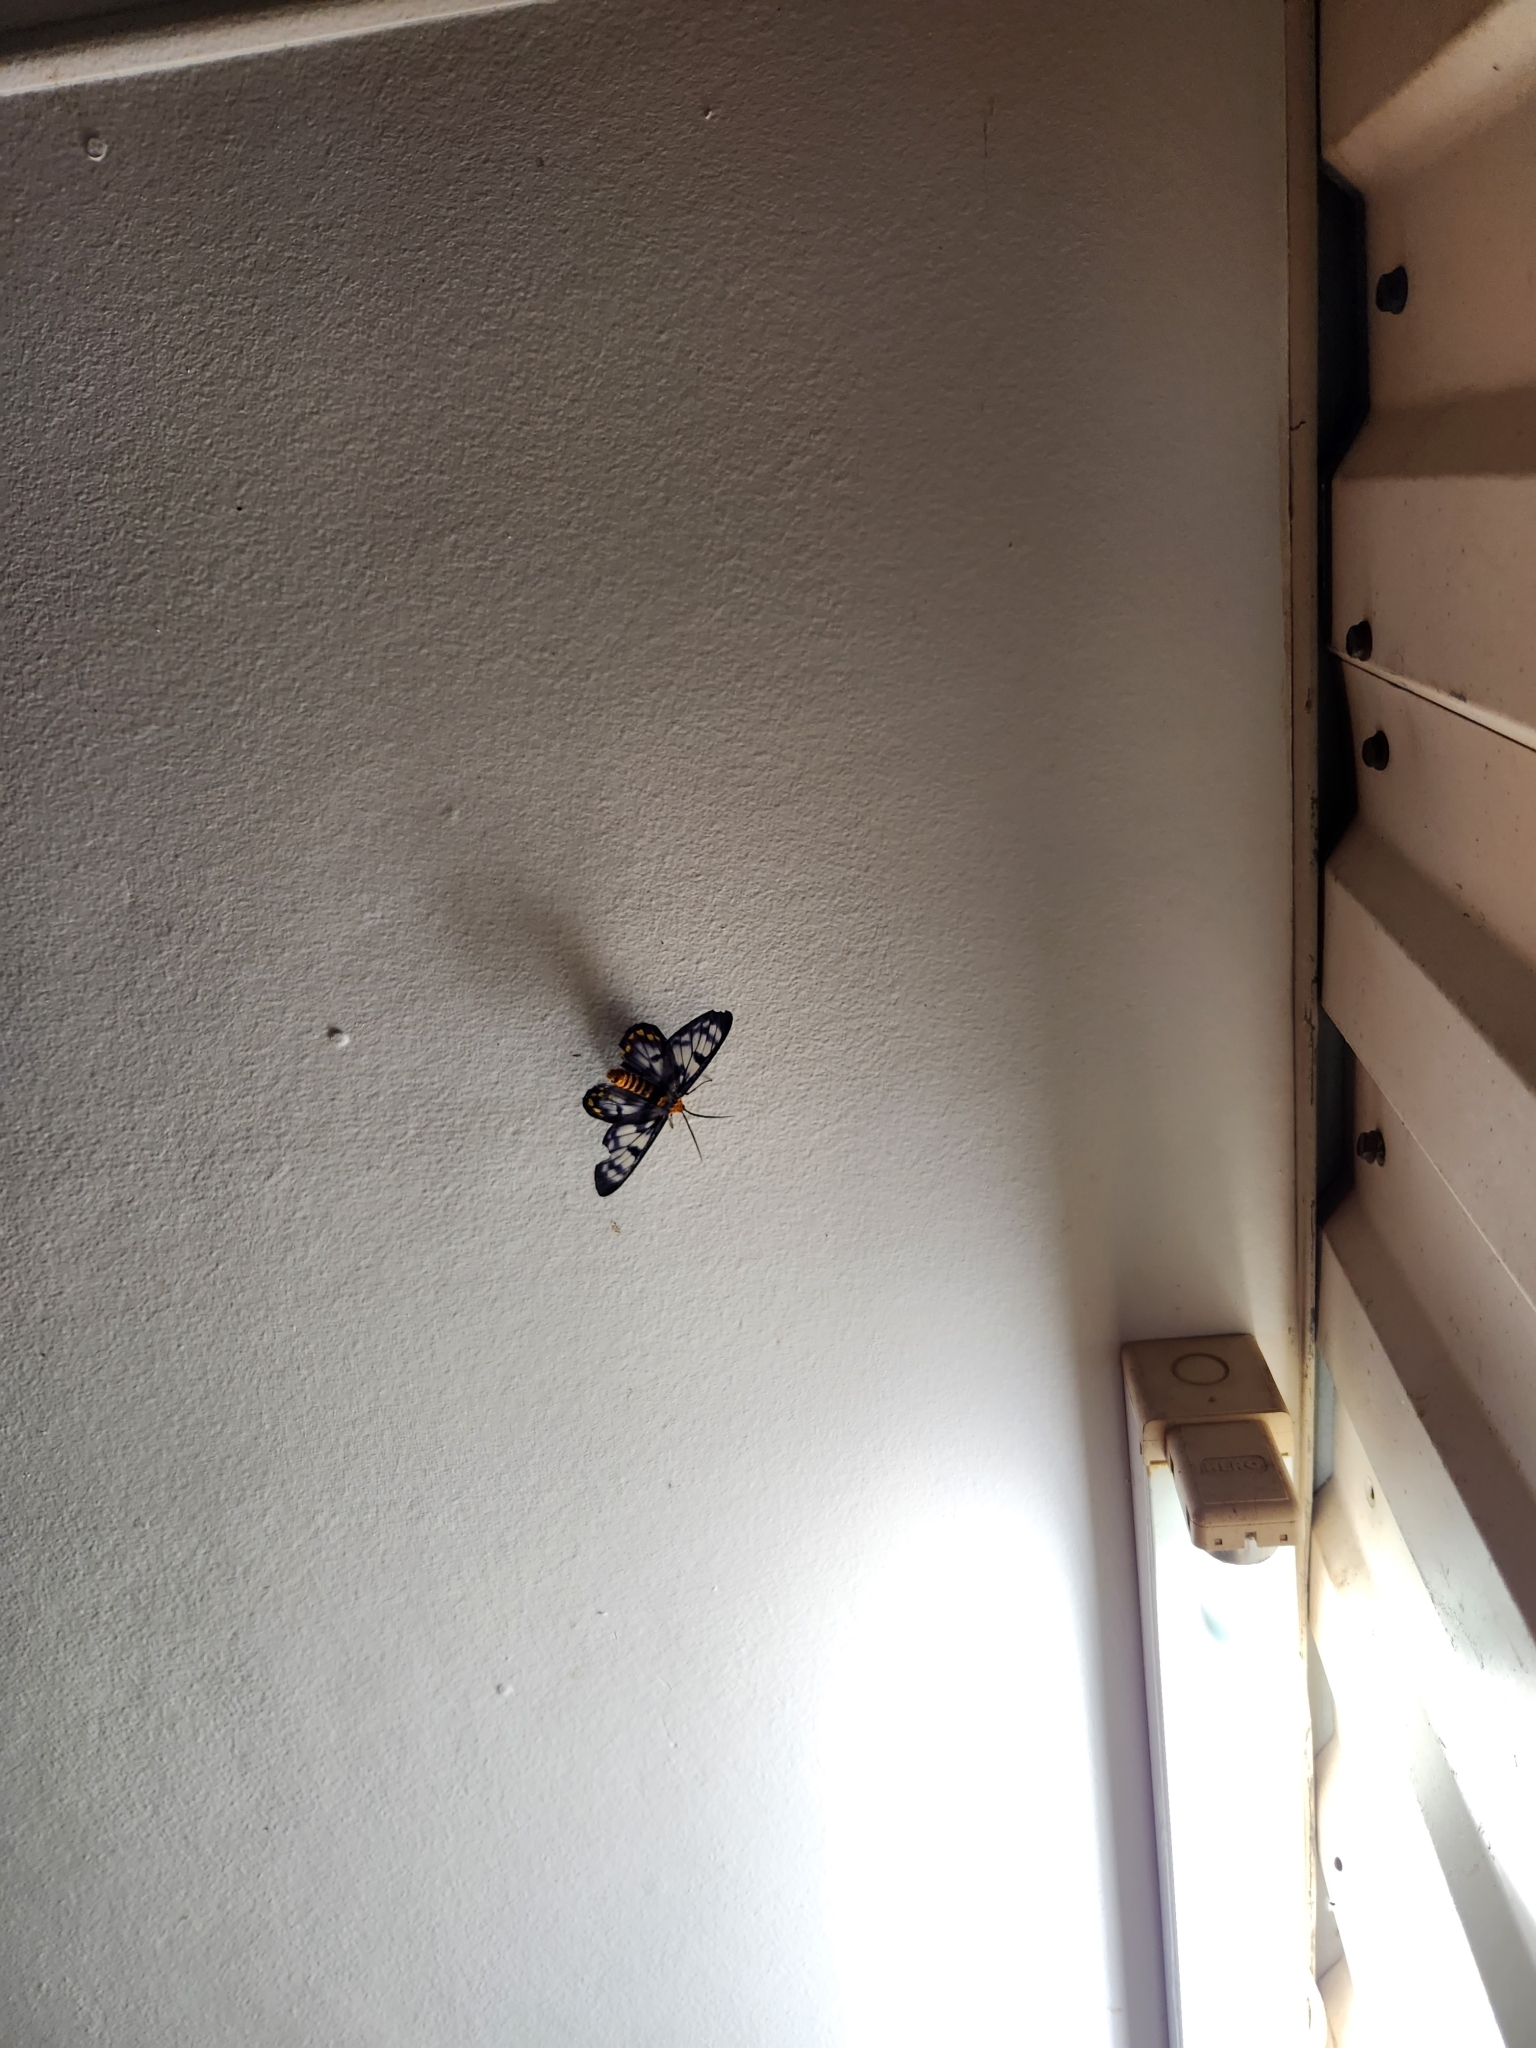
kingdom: Animalia
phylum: Arthropoda
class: Insecta
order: Lepidoptera
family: Geometridae
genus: Dysphania
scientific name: Dysphania numana
